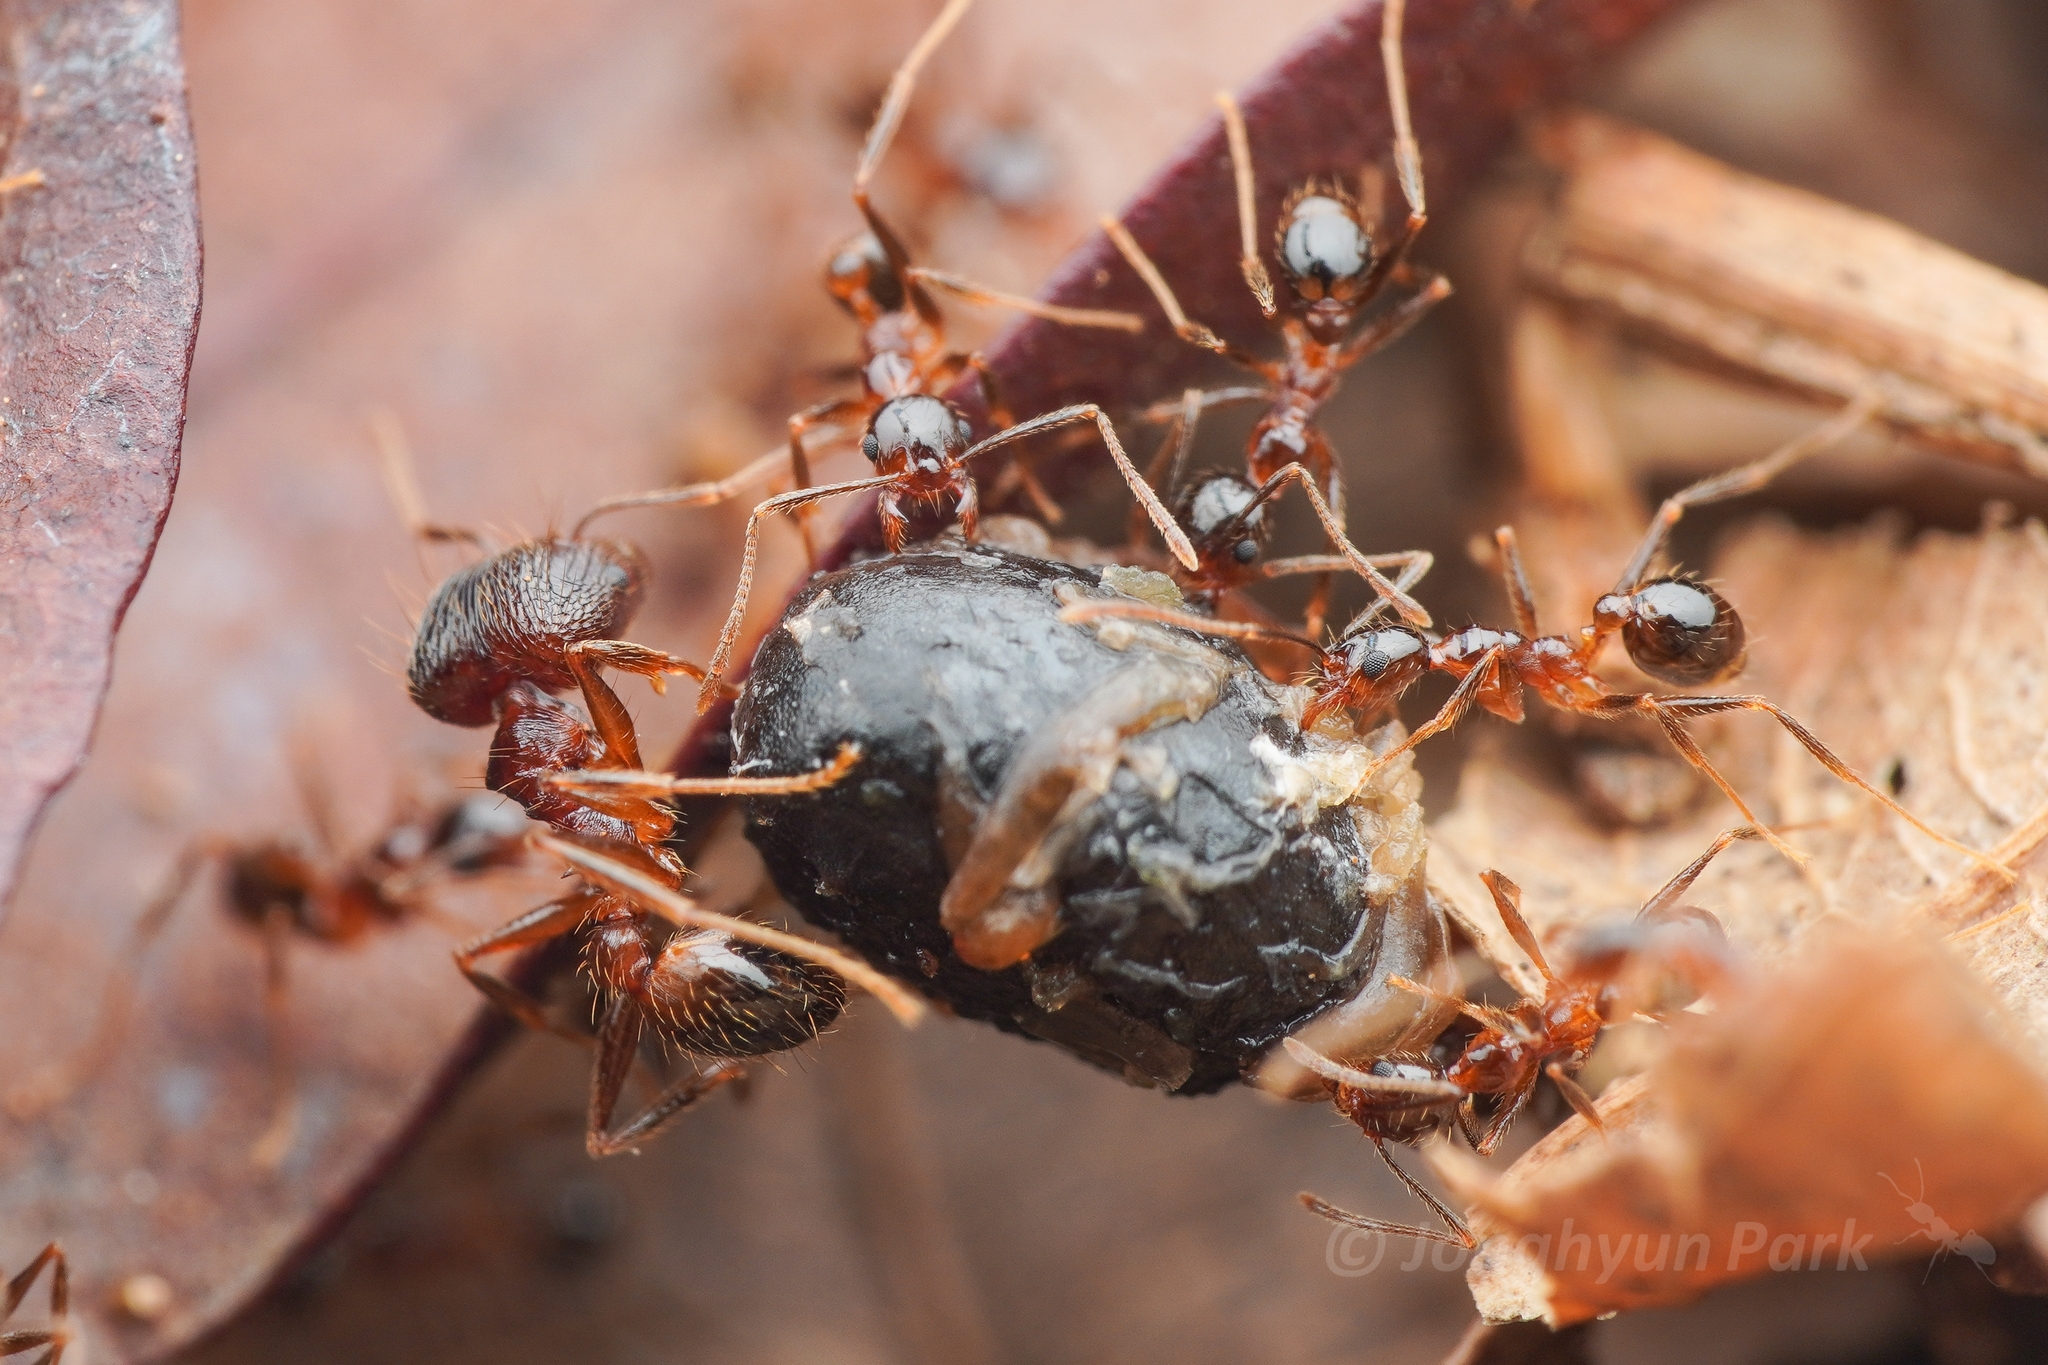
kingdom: Animalia
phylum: Arthropoda
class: Insecta
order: Hymenoptera
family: Formicidae
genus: Pheidole
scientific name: Pheidole noda
